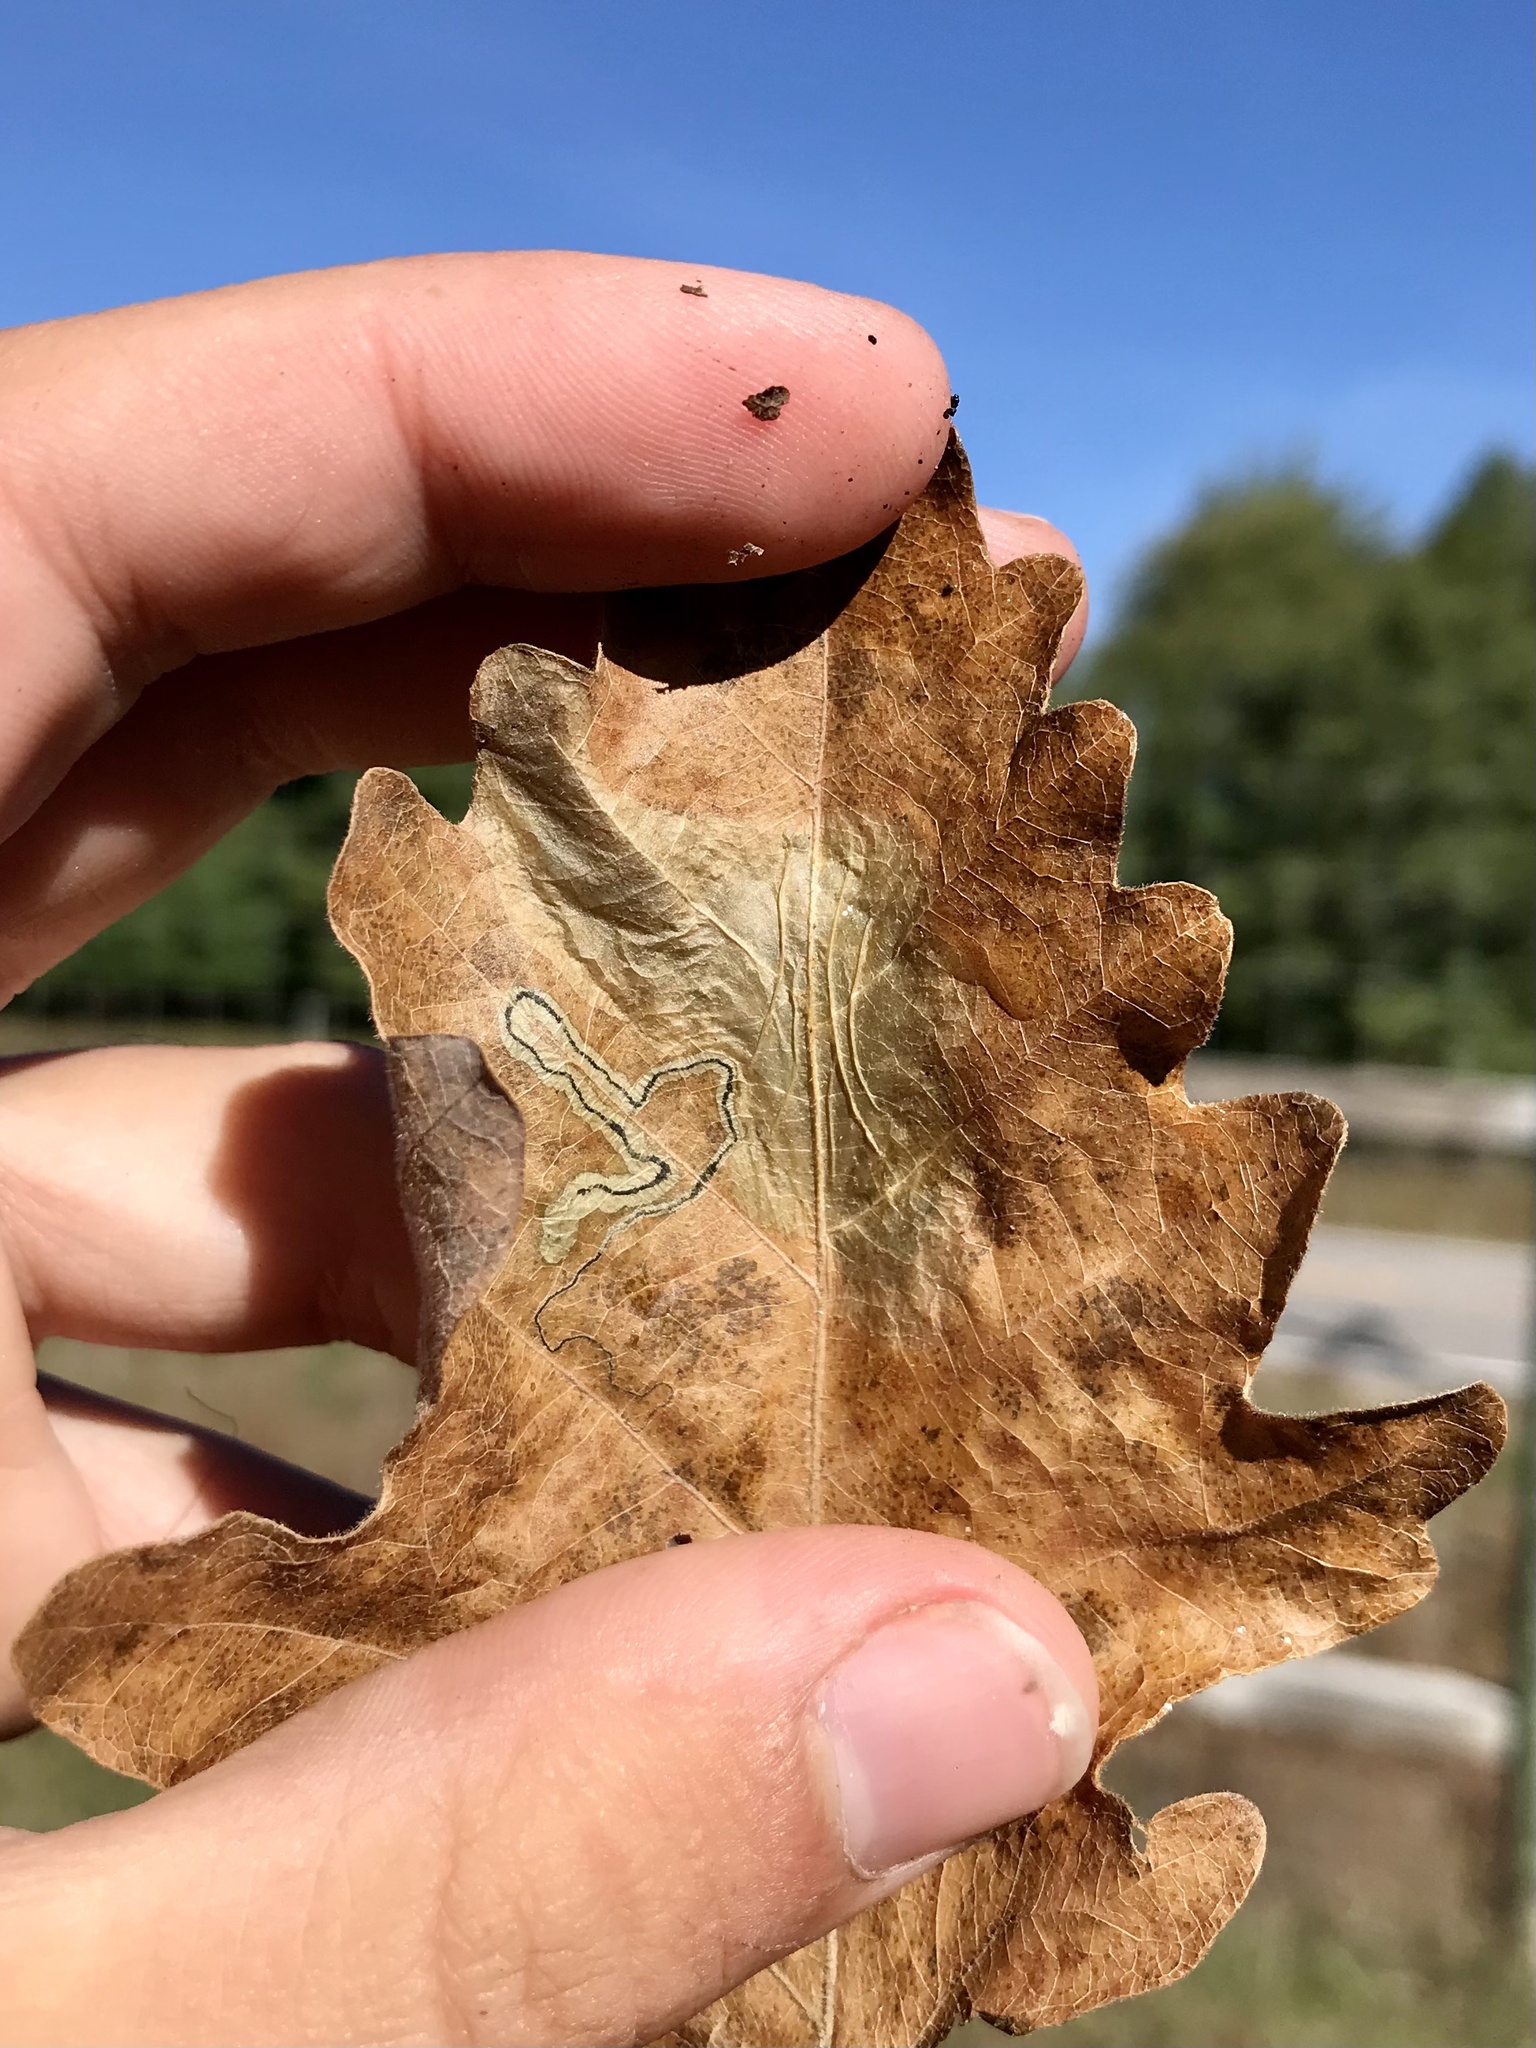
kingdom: Animalia
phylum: Arthropoda
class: Insecta
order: Lepidoptera
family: Gracillariidae
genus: Cameraria
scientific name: Cameraria
